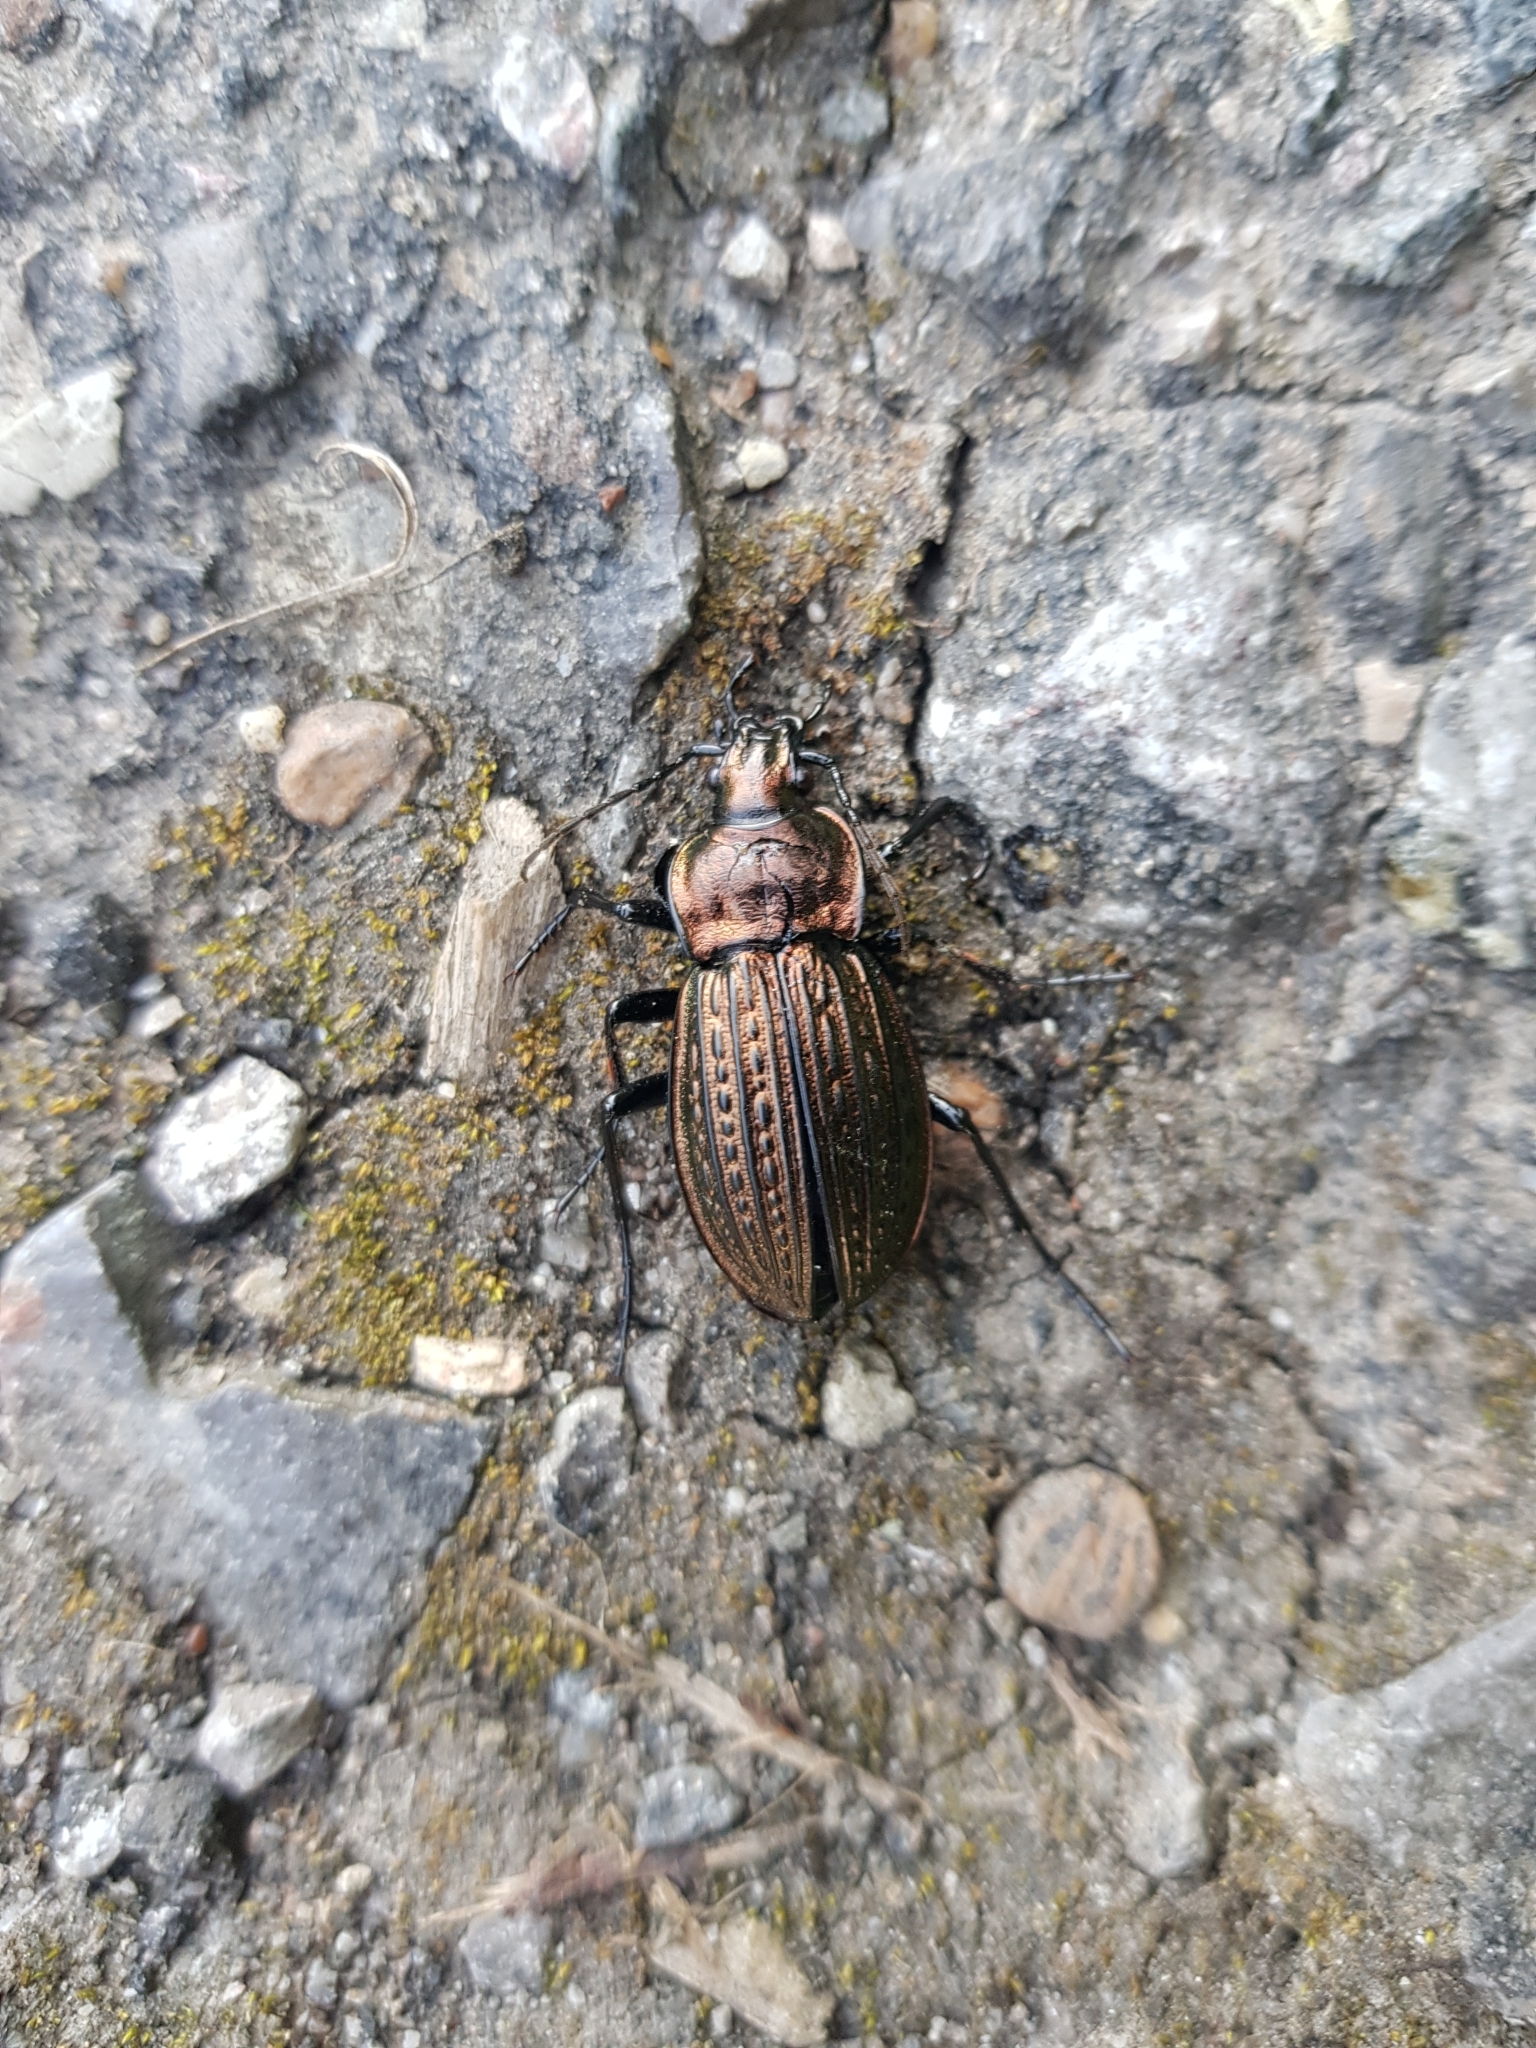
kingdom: Animalia
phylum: Arthropoda
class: Insecta
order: Coleoptera
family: Carabidae
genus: Carabus
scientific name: Carabus ulrichii
